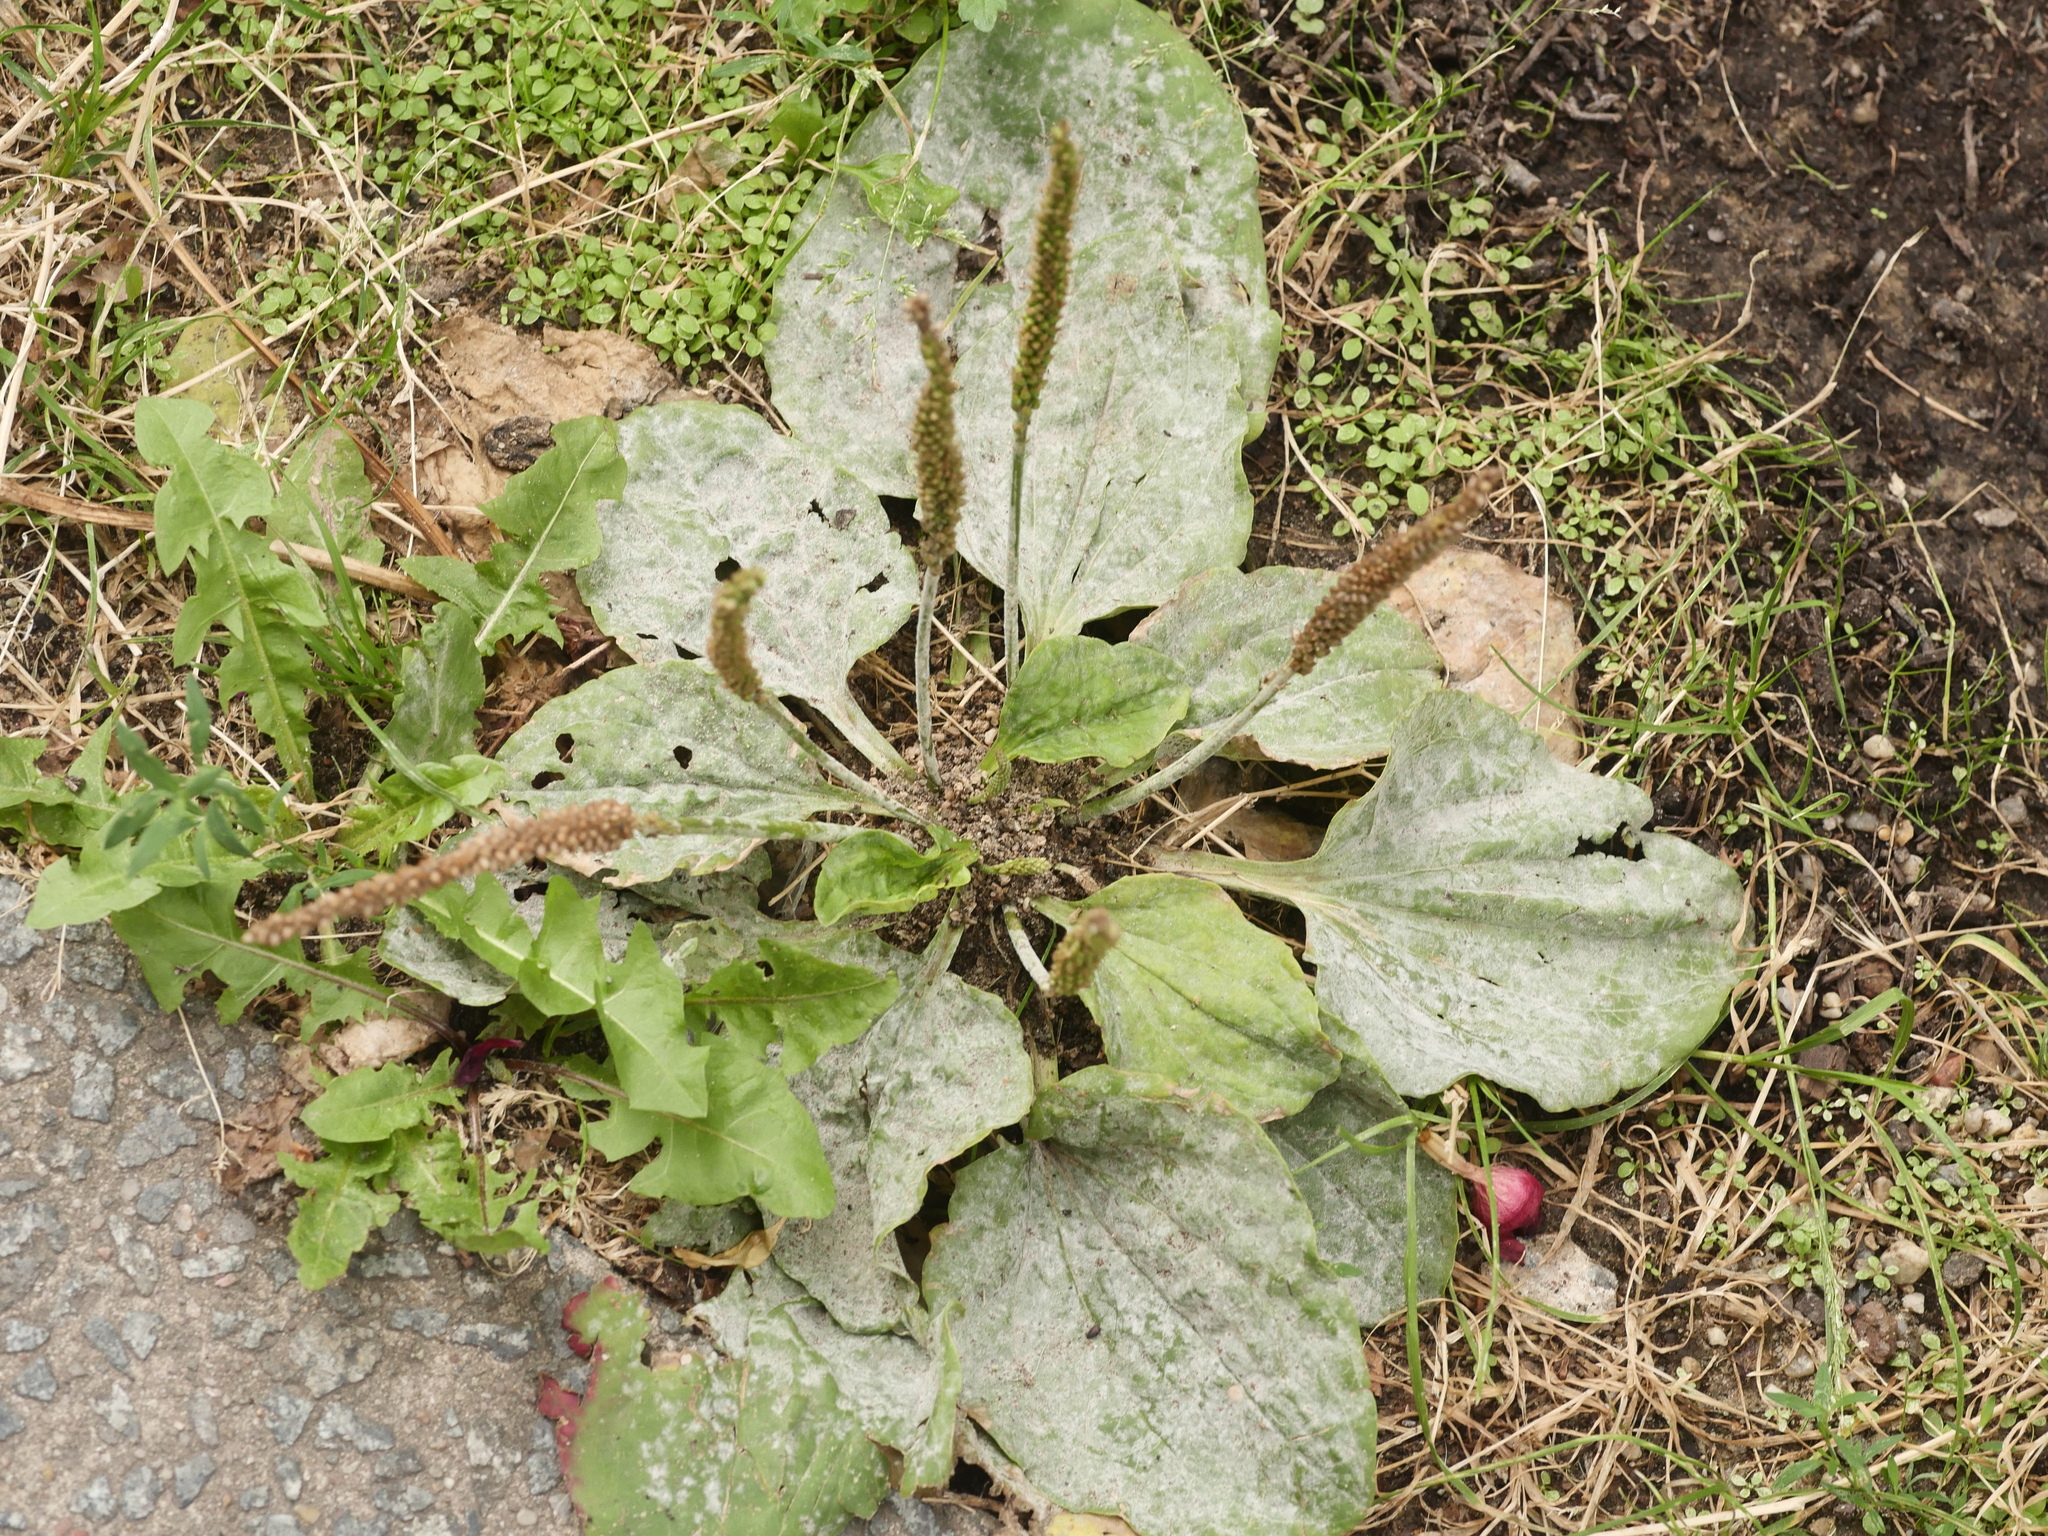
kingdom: Plantae
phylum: Tracheophyta
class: Magnoliopsida
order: Lamiales
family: Plantaginaceae
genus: Plantago
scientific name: Plantago major
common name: Common plantain
